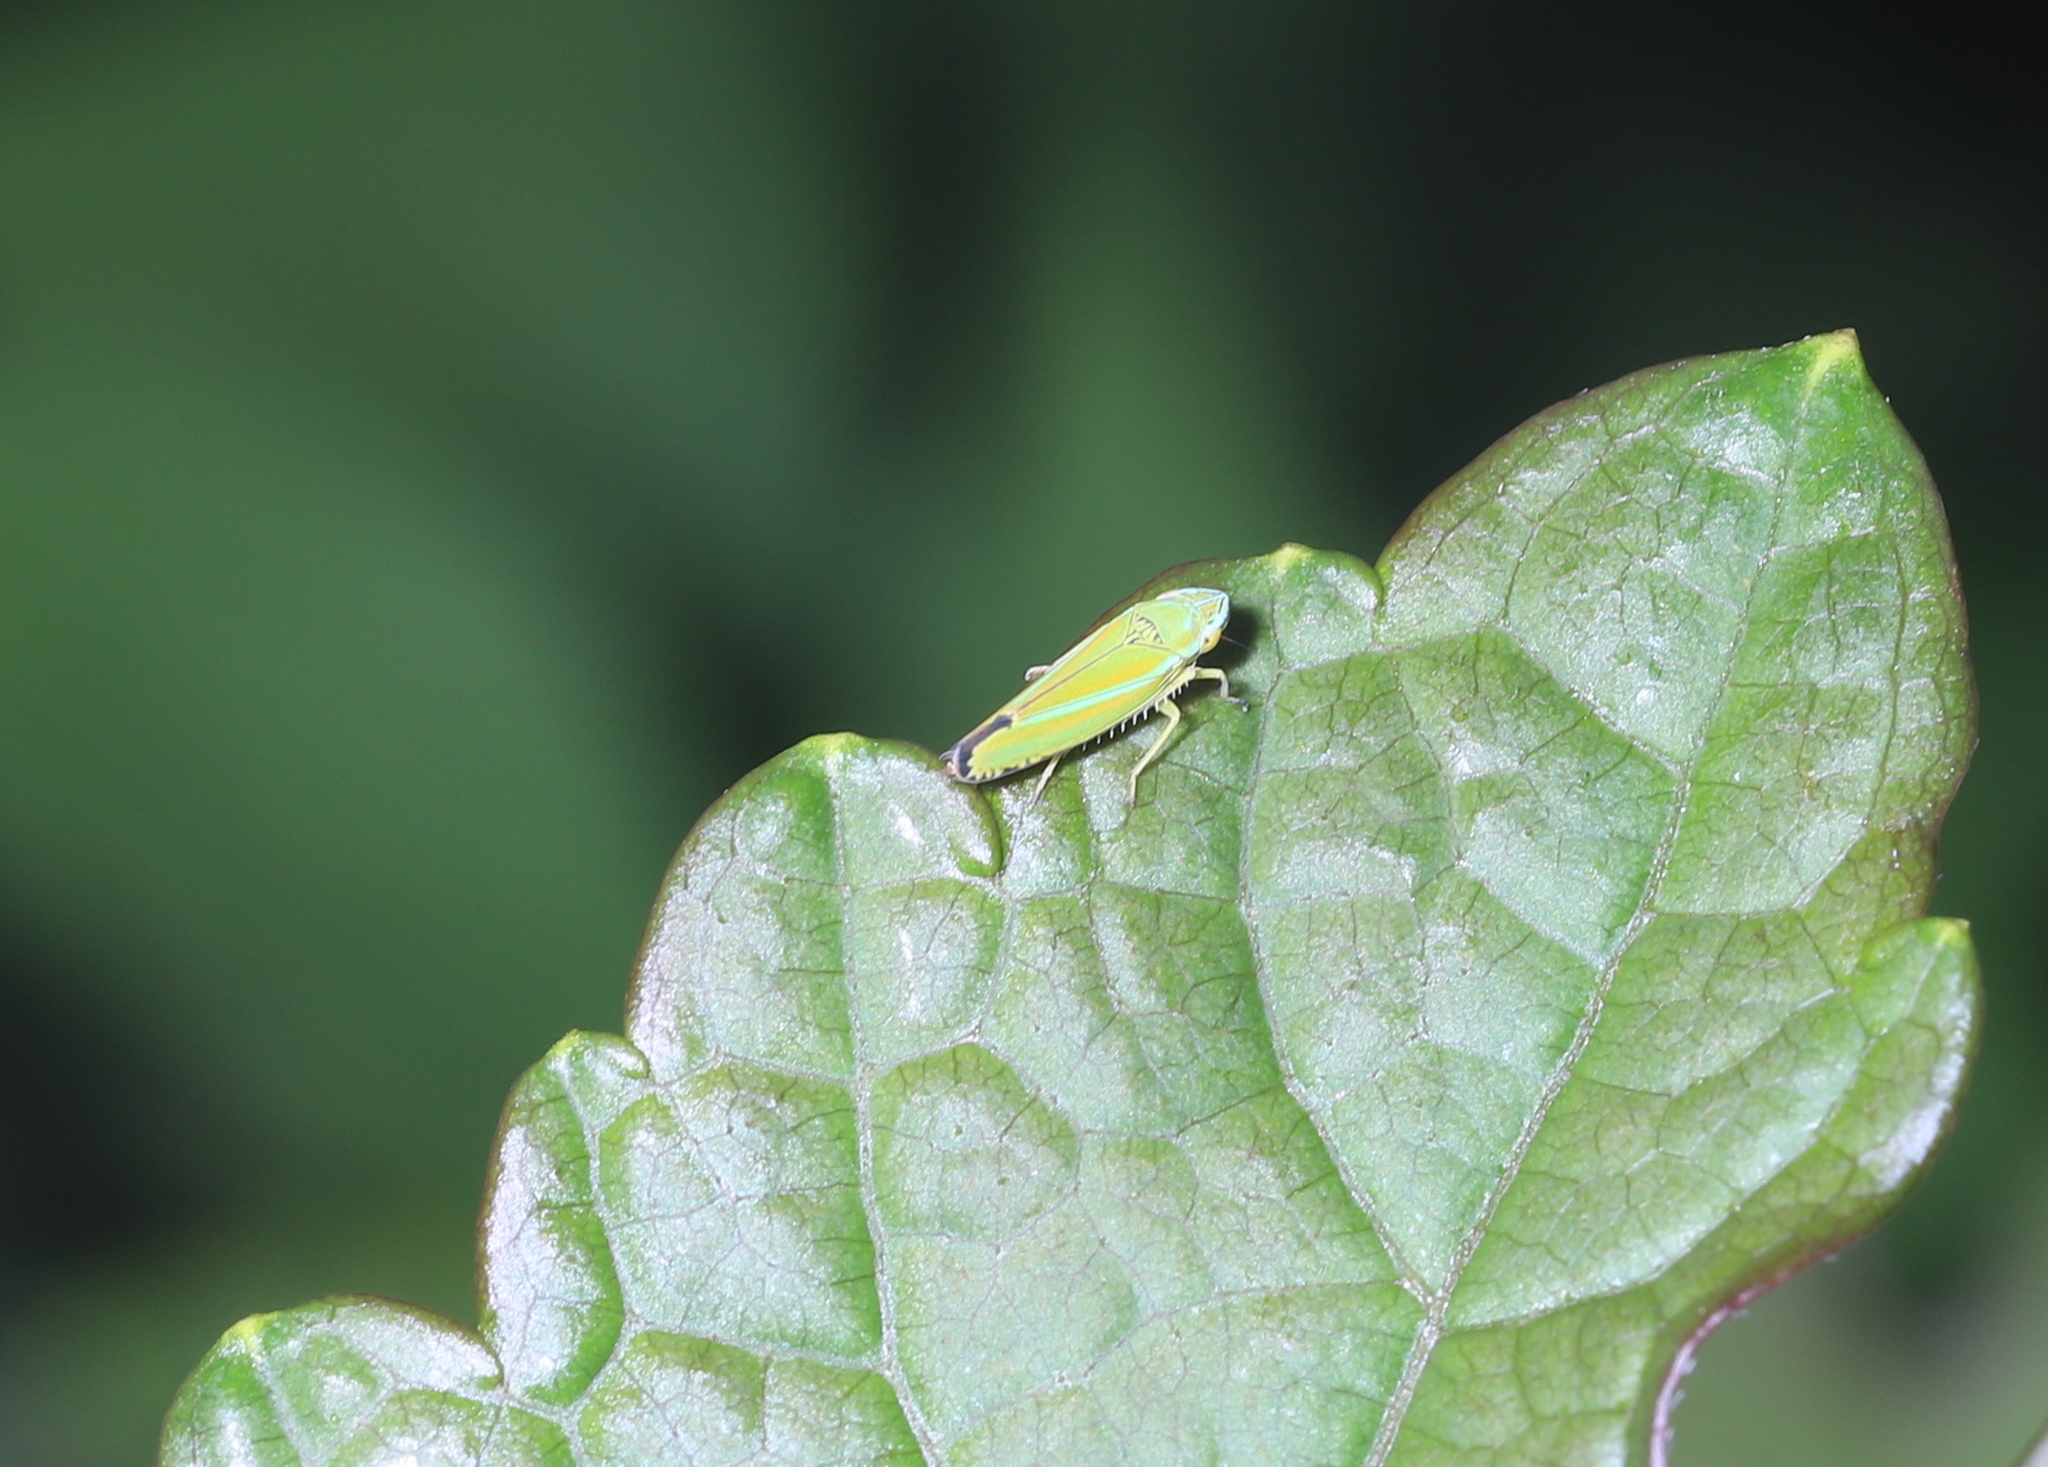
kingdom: Animalia
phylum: Arthropoda
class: Insecta
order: Hemiptera
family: Cicadellidae
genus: Graphocephala
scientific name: Graphocephala versuta
